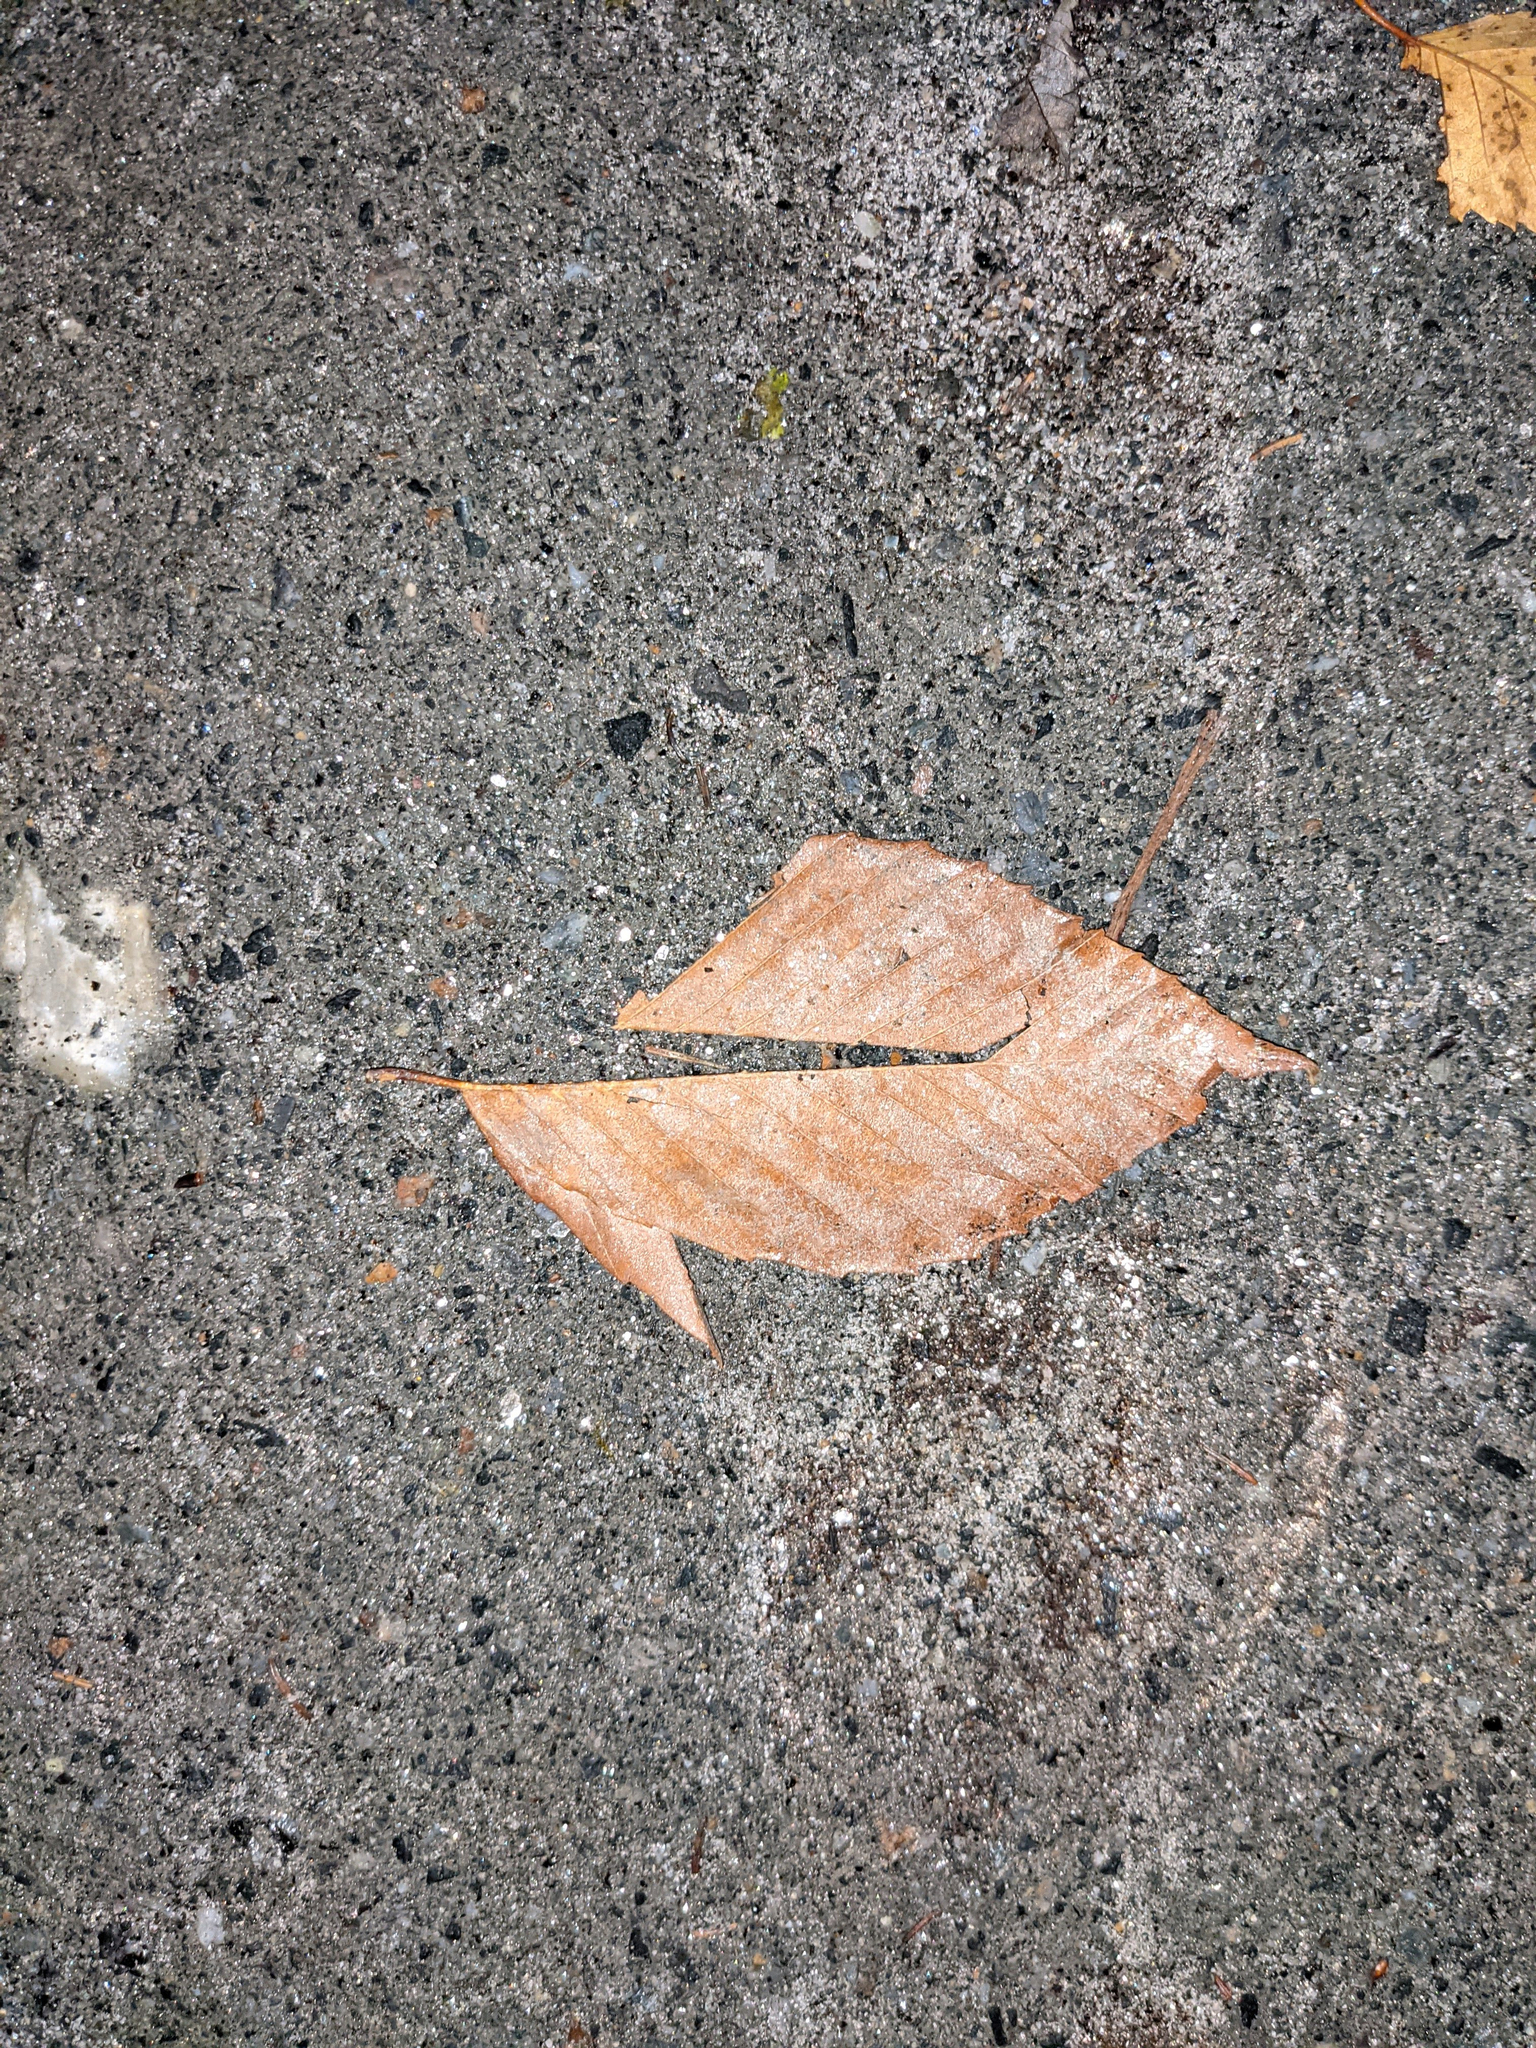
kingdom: Plantae
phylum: Tracheophyta
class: Magnoliopsida
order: Fagales
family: Fagaceae
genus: Fagus
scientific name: Fagus grandifolia
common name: American beech
